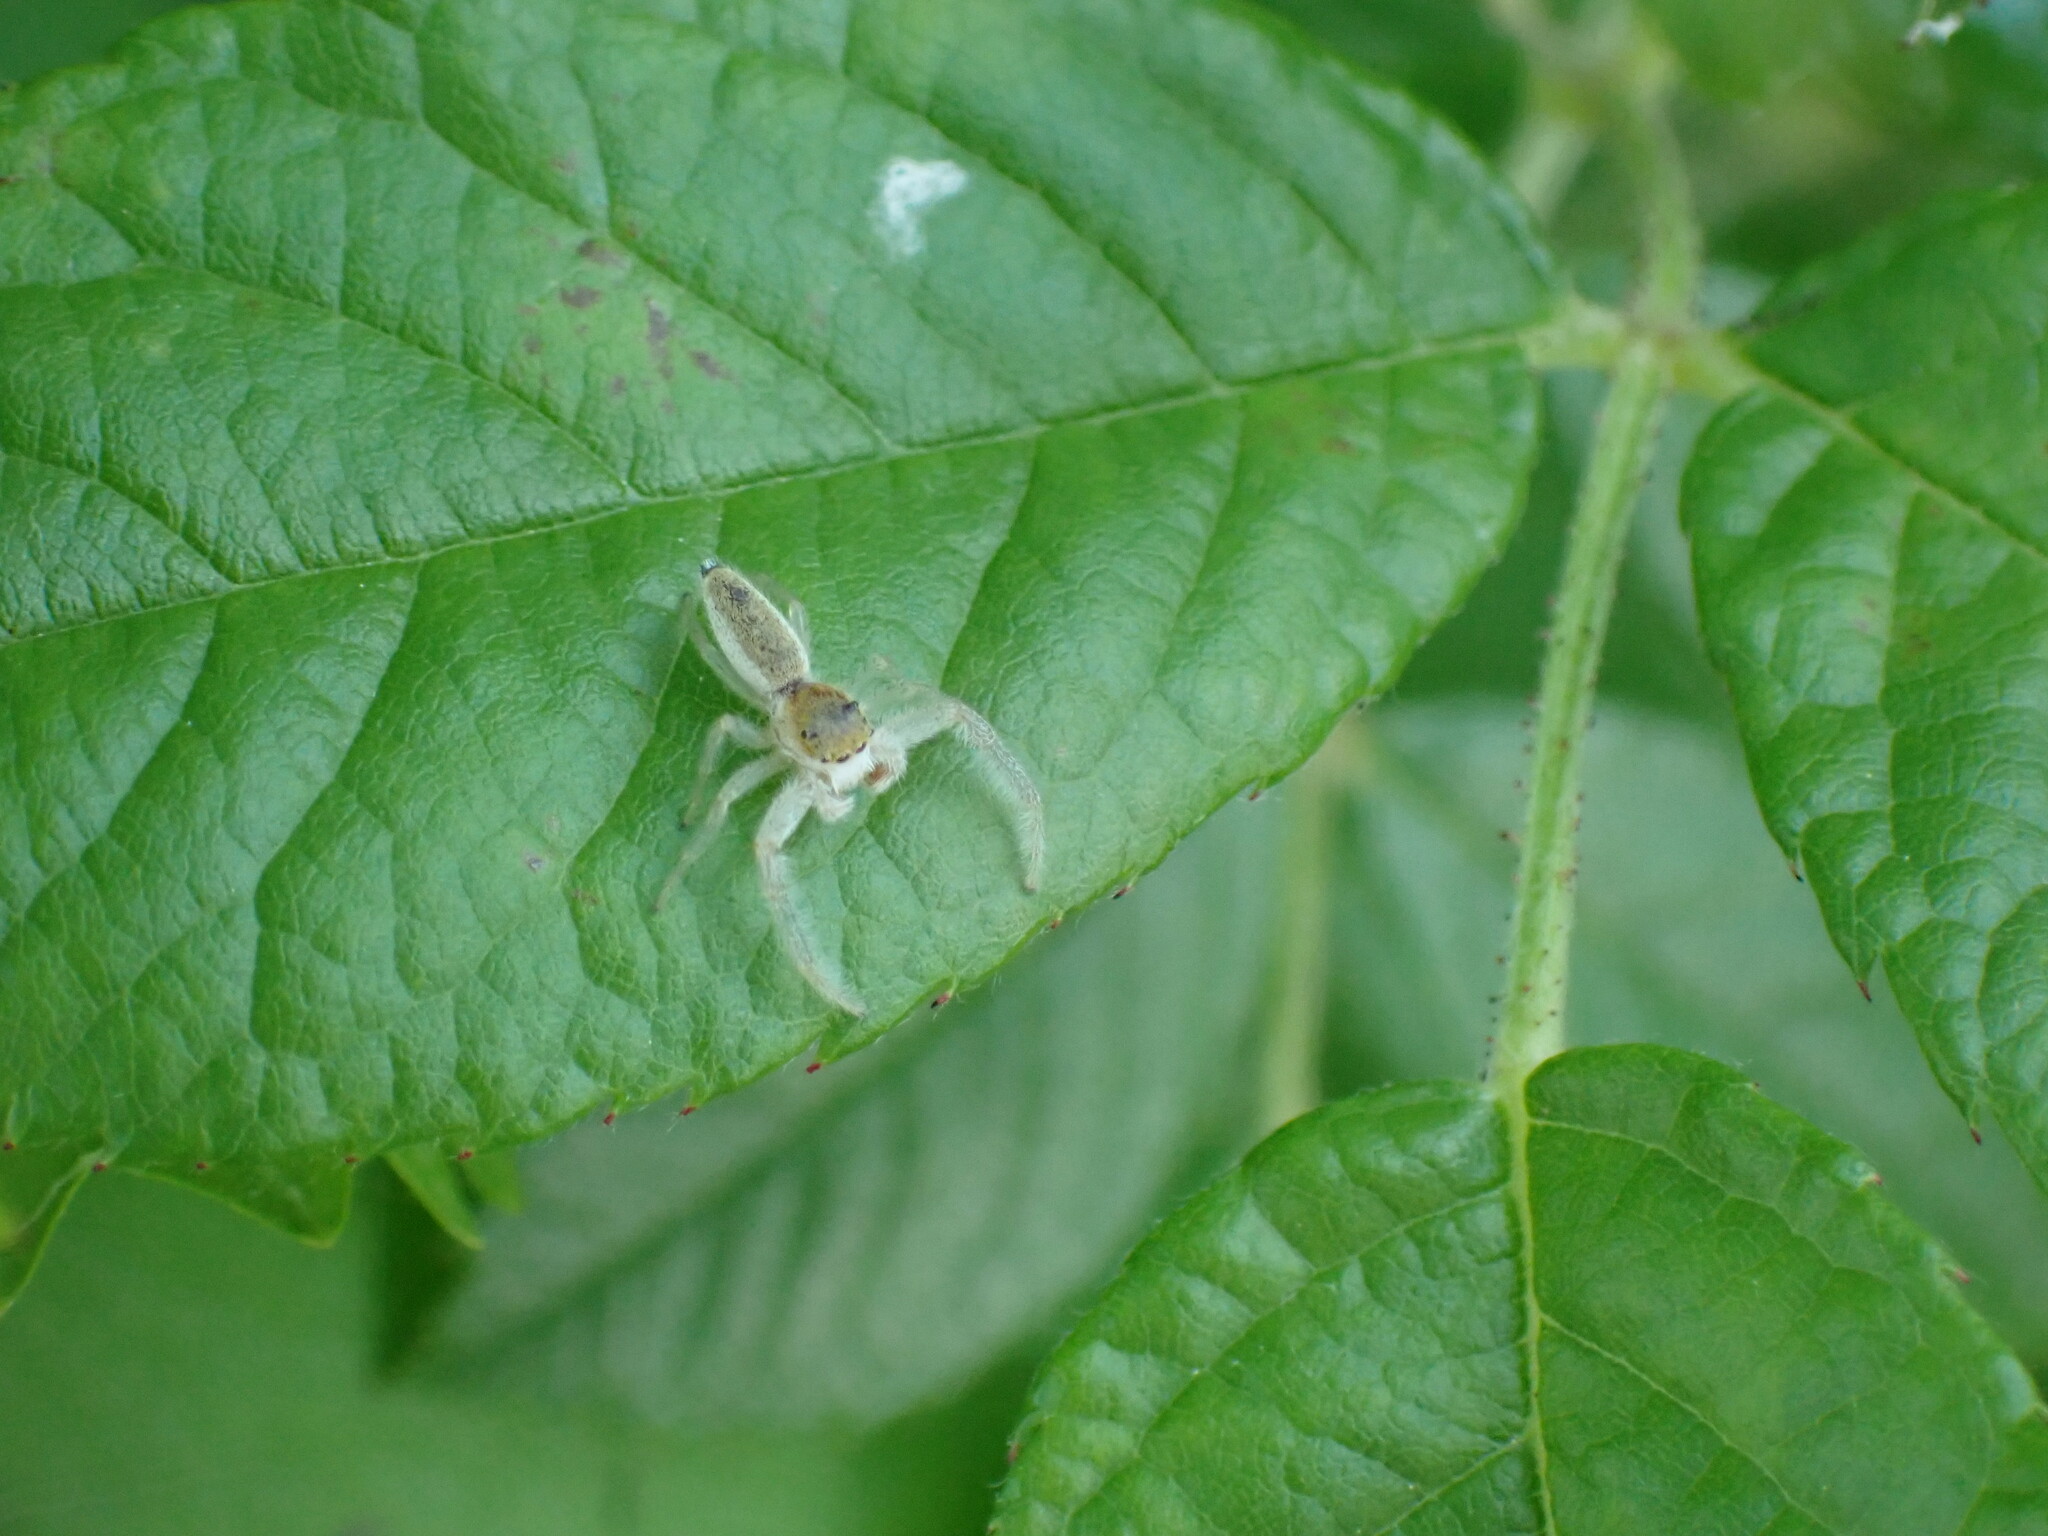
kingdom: Animalia
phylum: Arthropoda
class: Arachnida
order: Araneae
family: Salticidae
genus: Hentzia
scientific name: Hentzia mitrata
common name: White-jawed jumping spider
